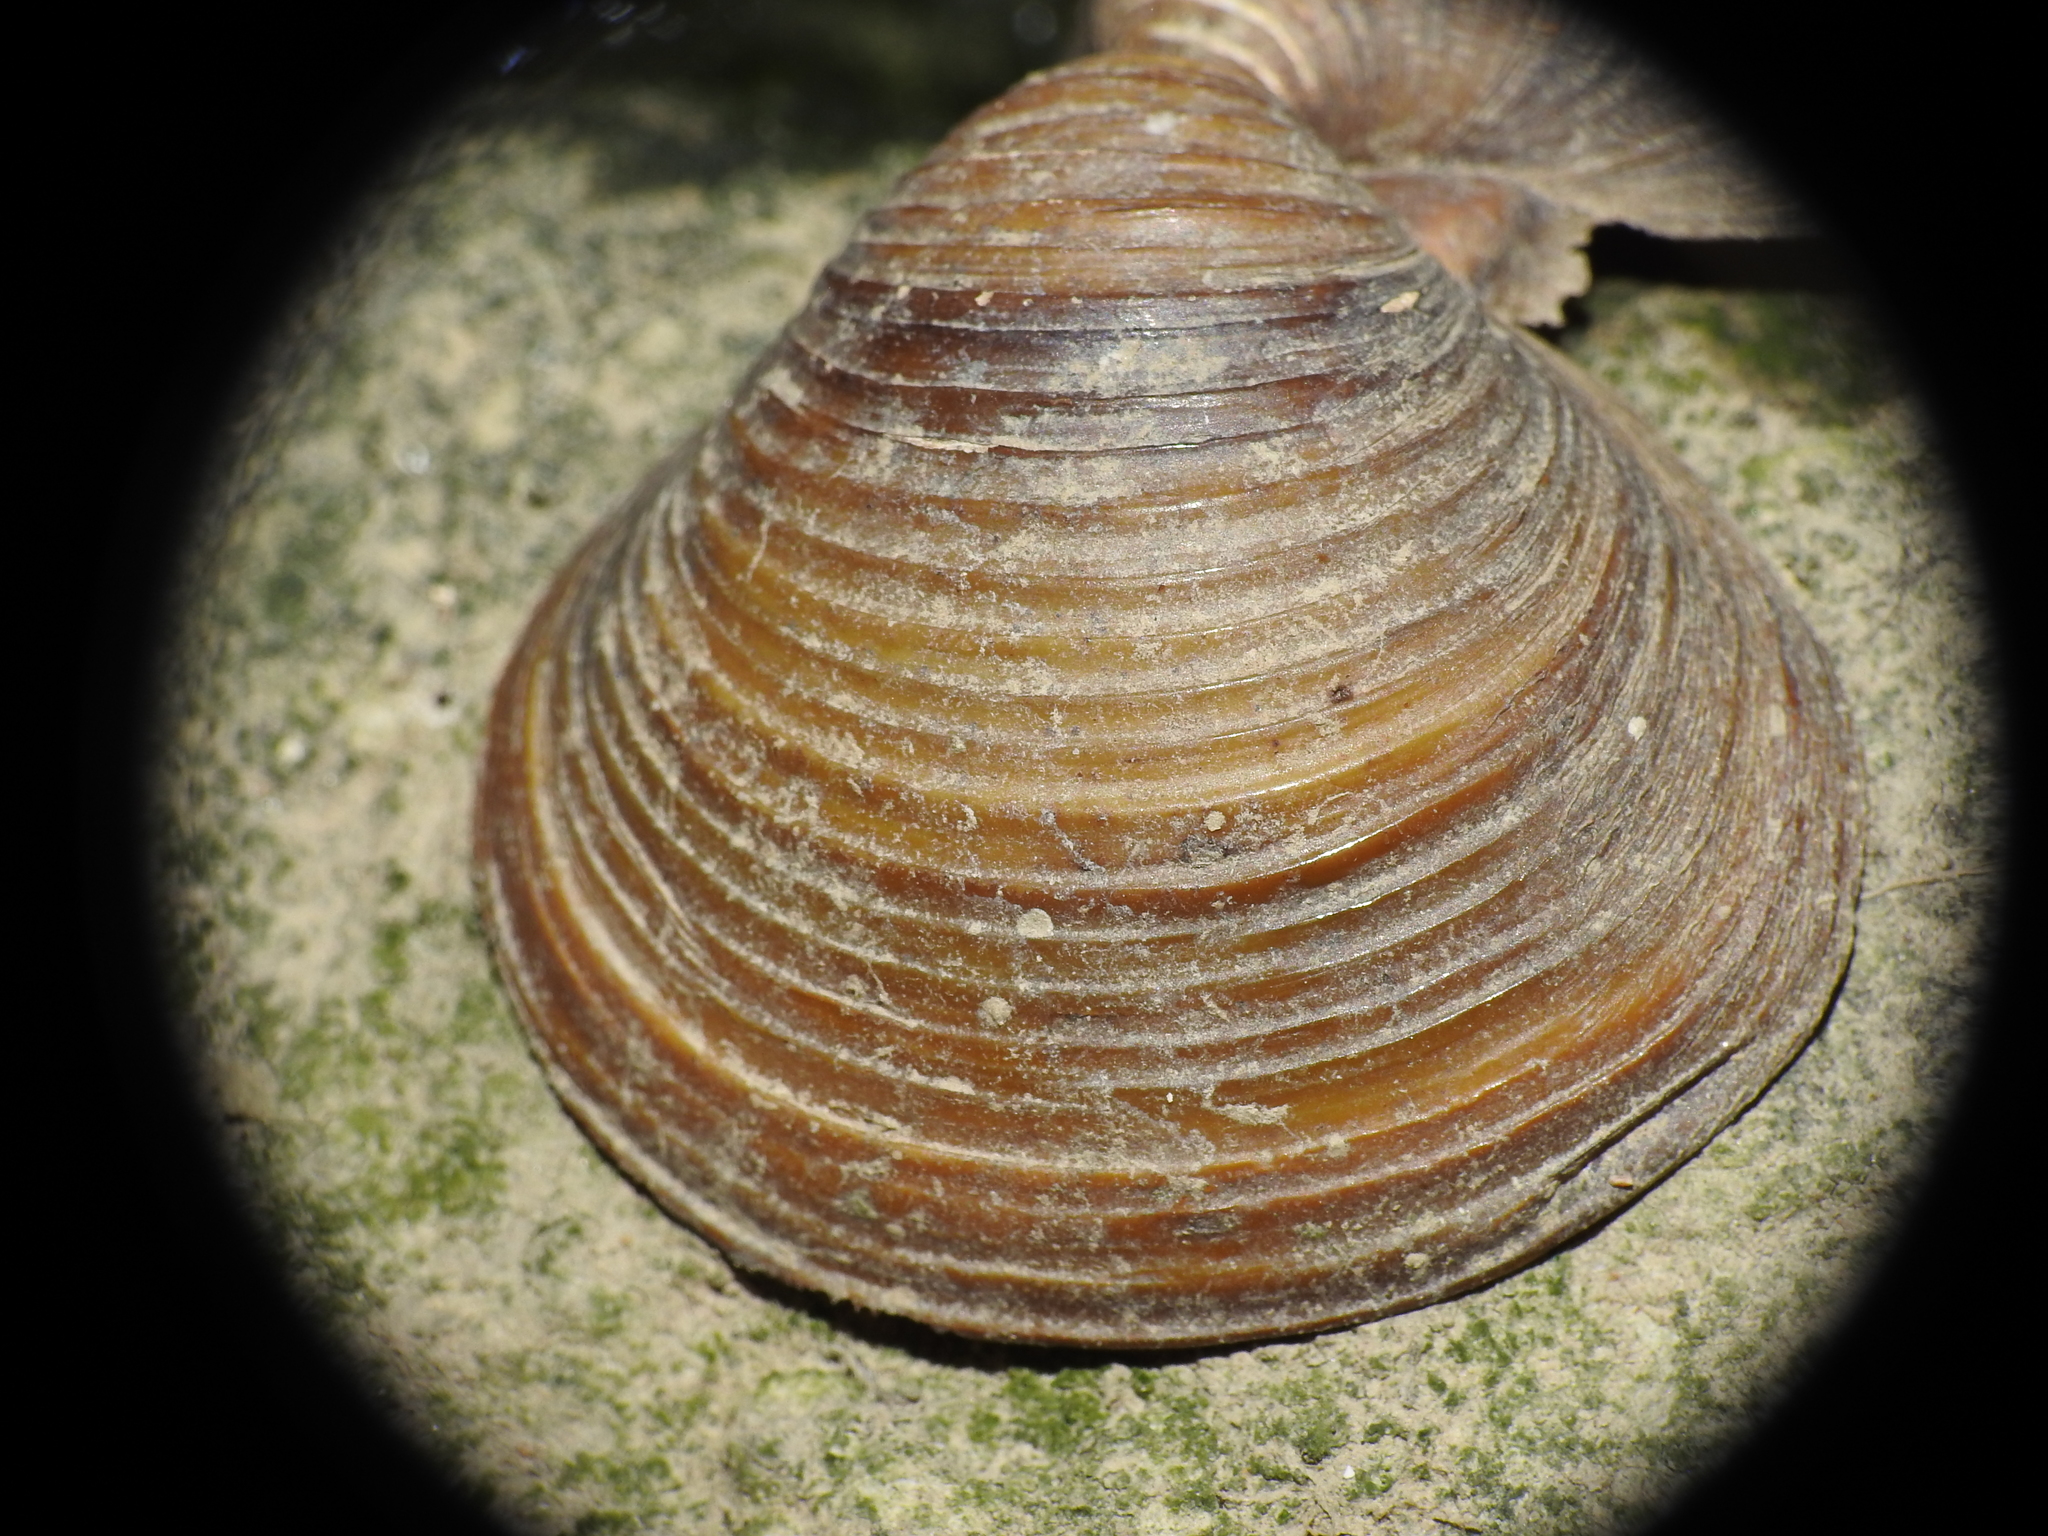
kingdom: Animalia
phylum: Mollusca
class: Bivalvia
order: Venerida
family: Cyrenidae
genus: Corbicula
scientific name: Corbicula fluminea
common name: Asian clam
